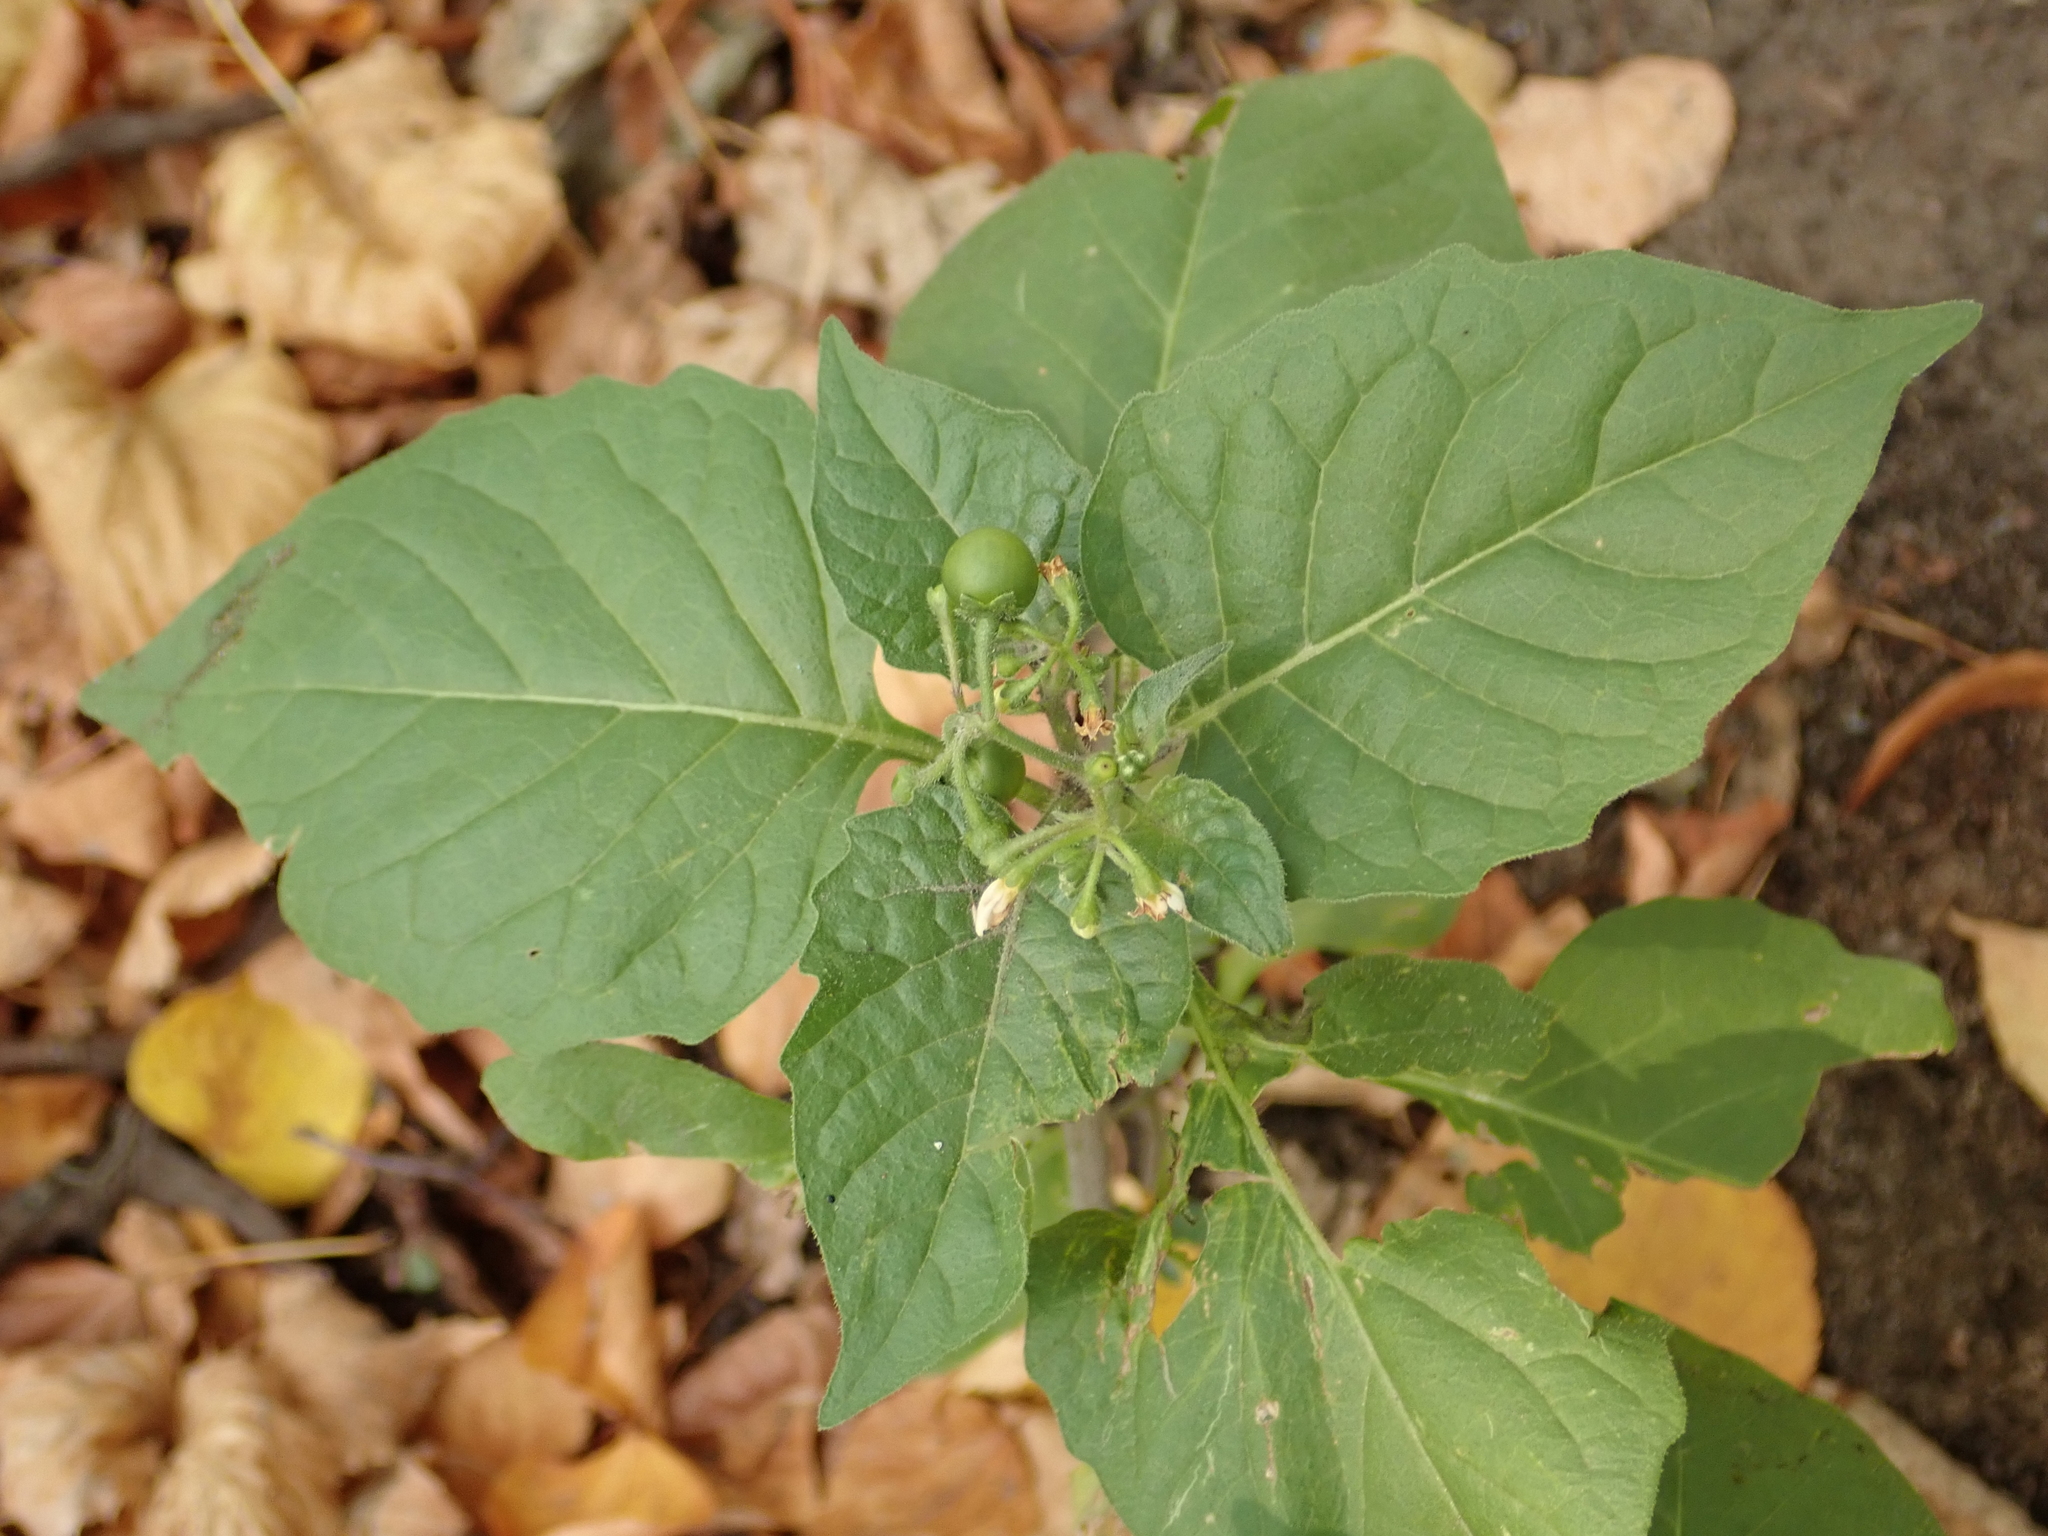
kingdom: Plantae
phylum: Tracheophyta
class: Magnoliopsida
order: Solanales
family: Solanaceae
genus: Solanum
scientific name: Solanum nigrum
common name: Black nightshade
